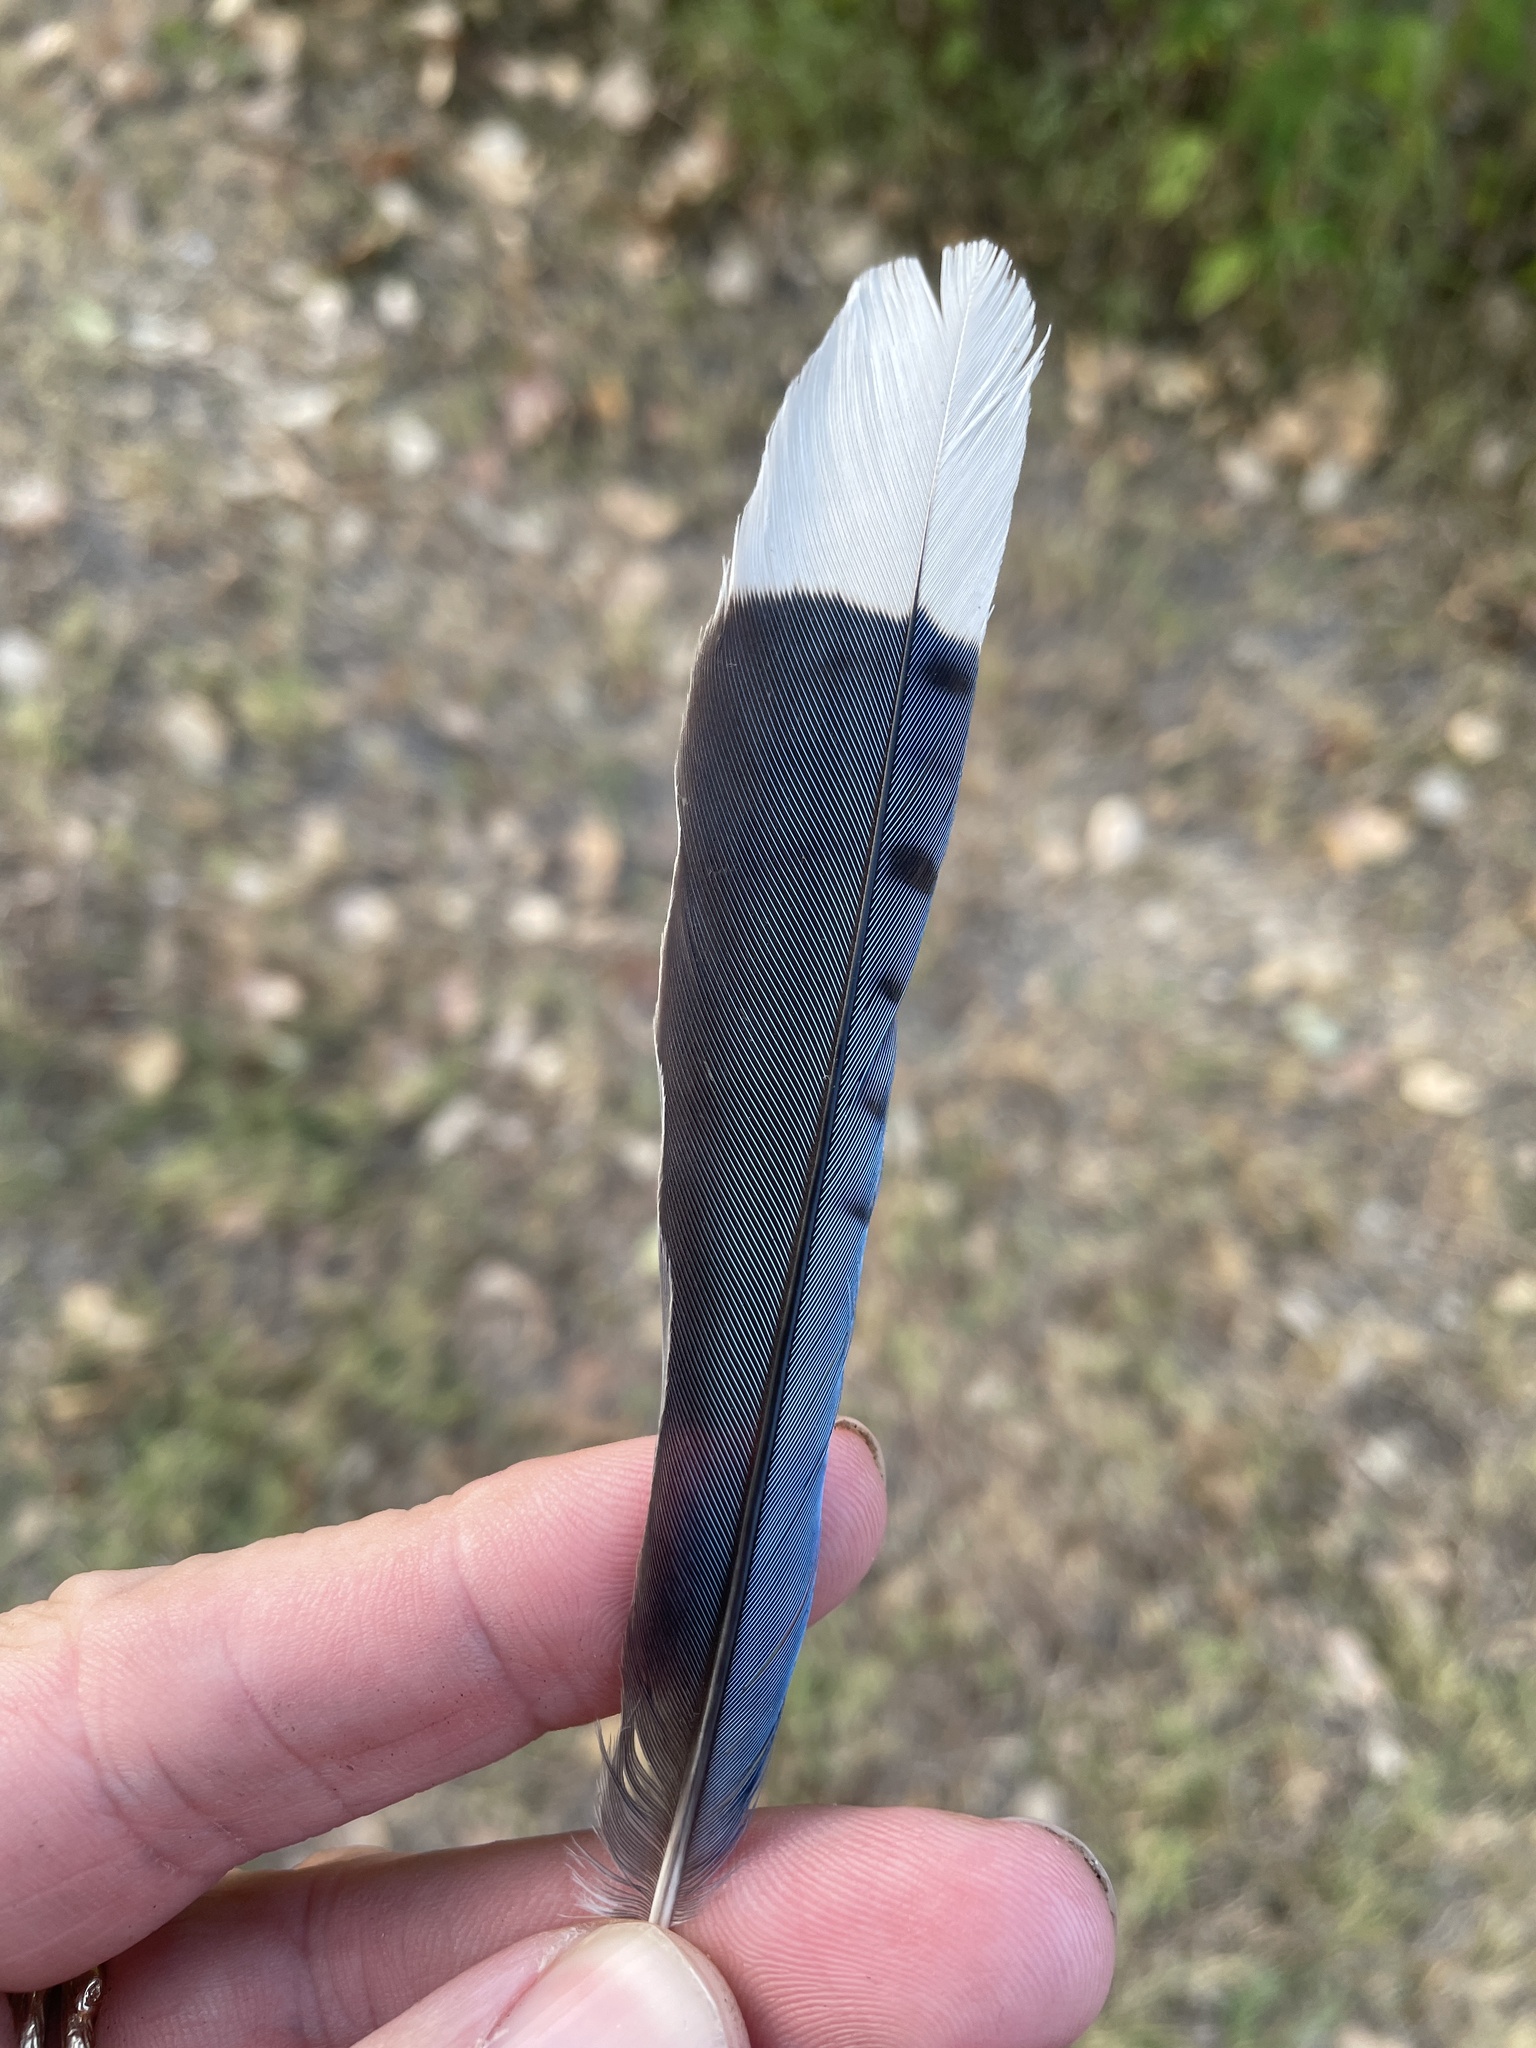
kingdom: Animalia
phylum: Chordata
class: Aves
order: Passeriformes
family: Corvidae
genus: Cyanocitta
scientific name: Cyanocitta cristata
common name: Blue jay
